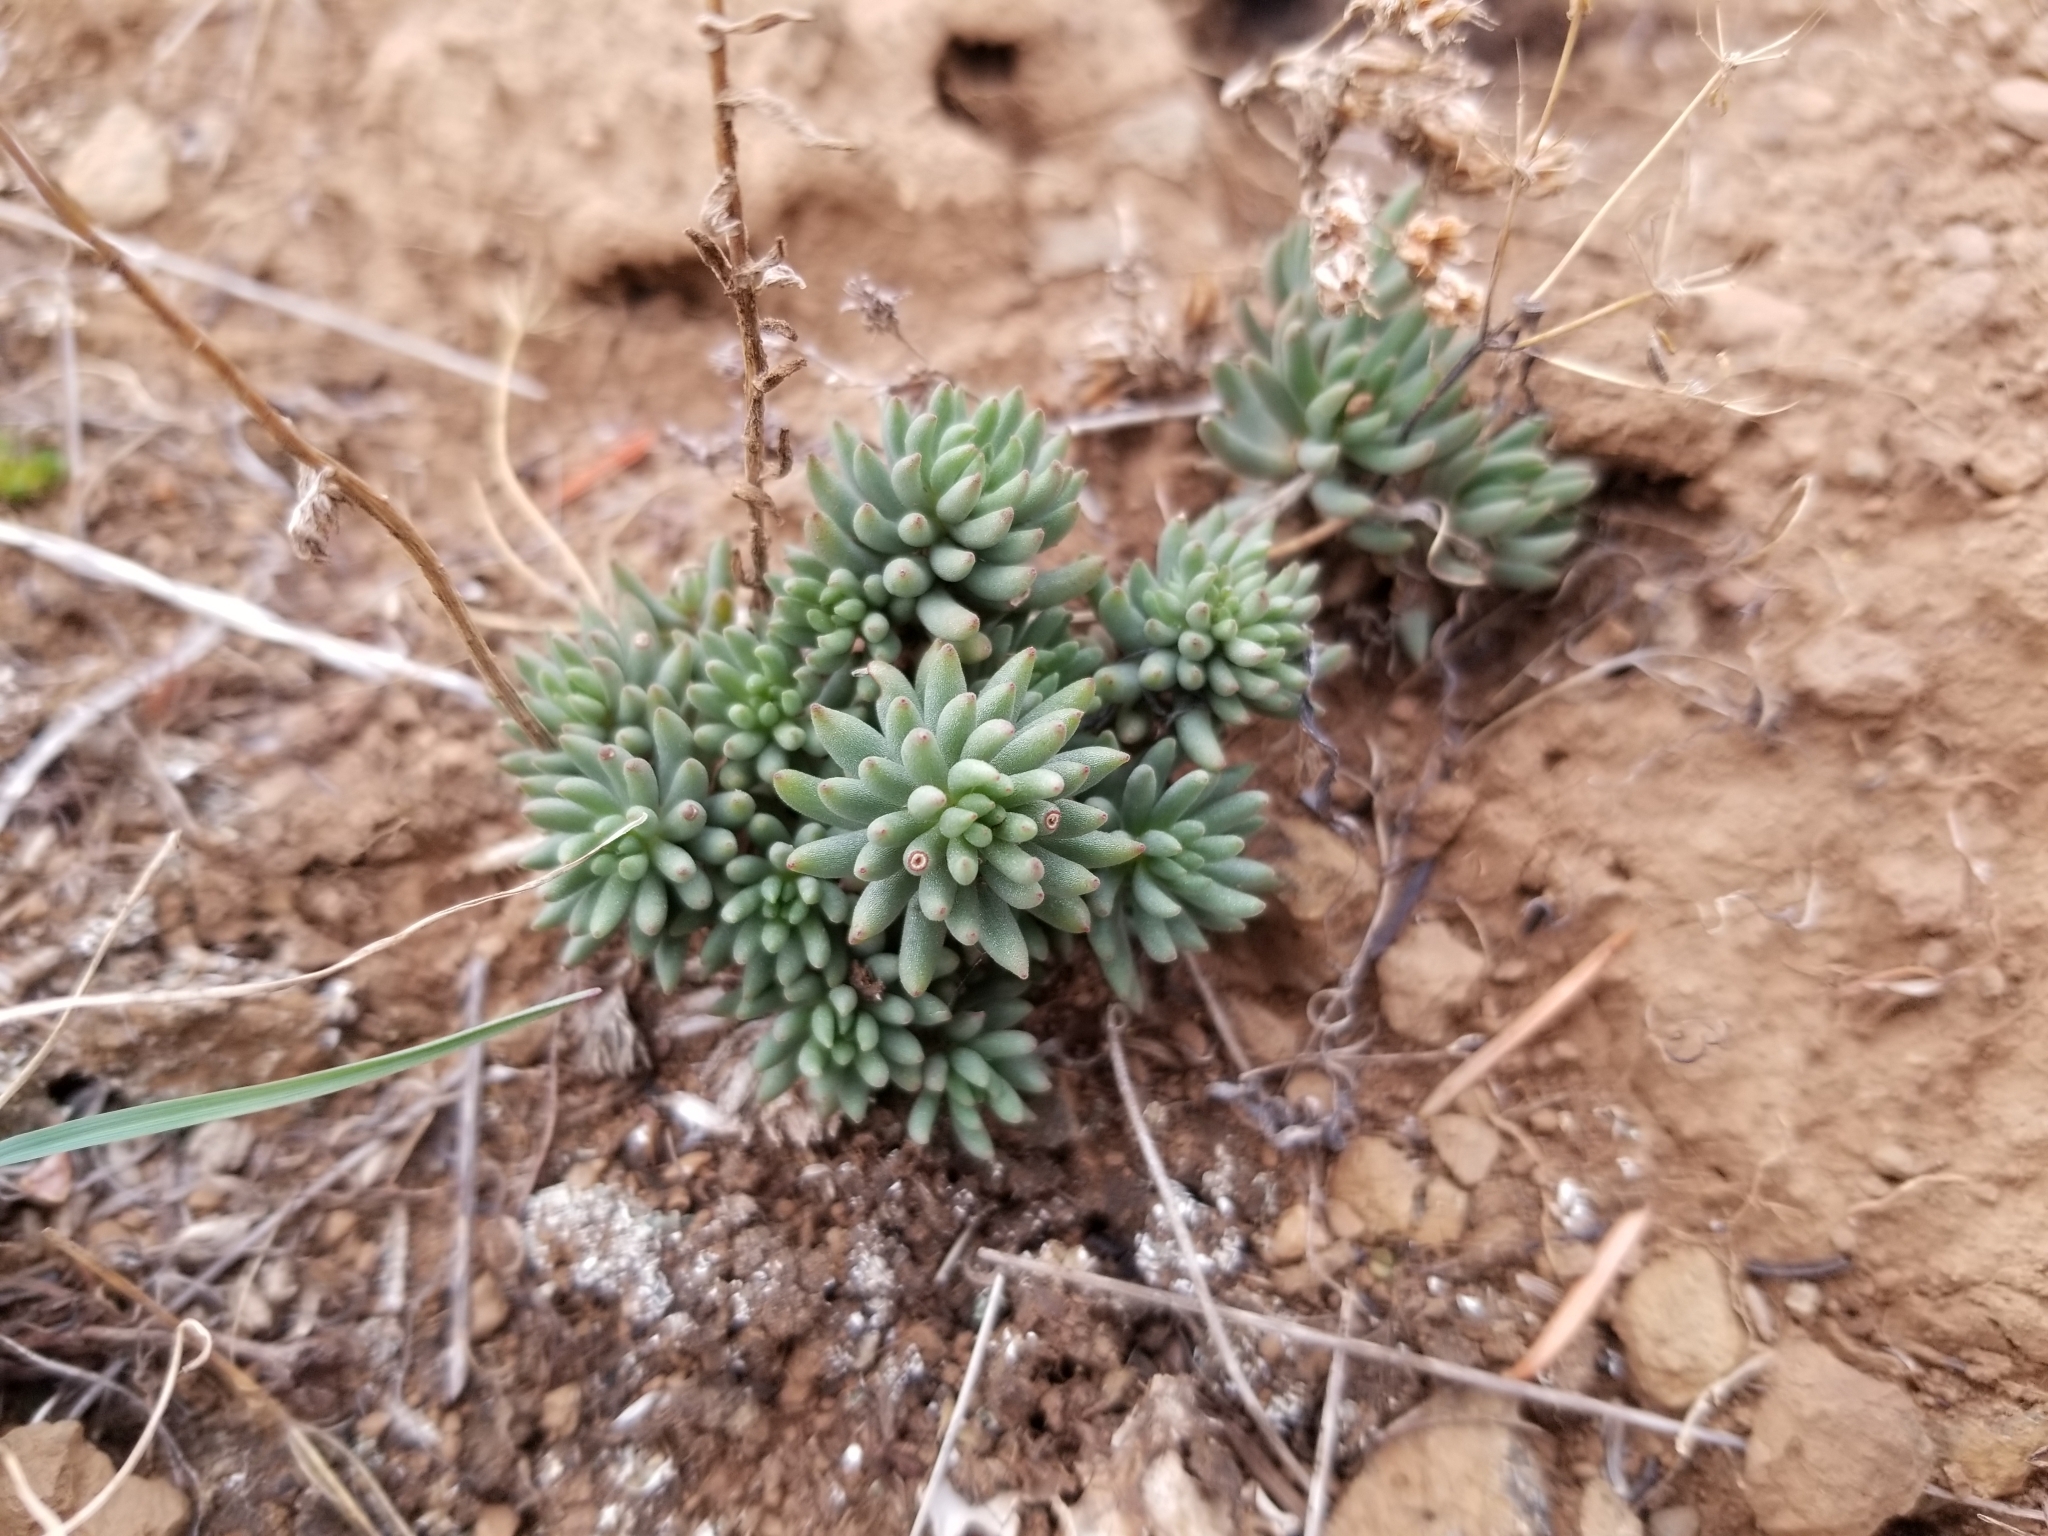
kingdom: Plantae
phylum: Tracheophyta
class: Magnoliopsida
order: Saxifragales
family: Crassulaceae
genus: Sedum
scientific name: Sedum lanceolatum
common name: Common stonecrop
